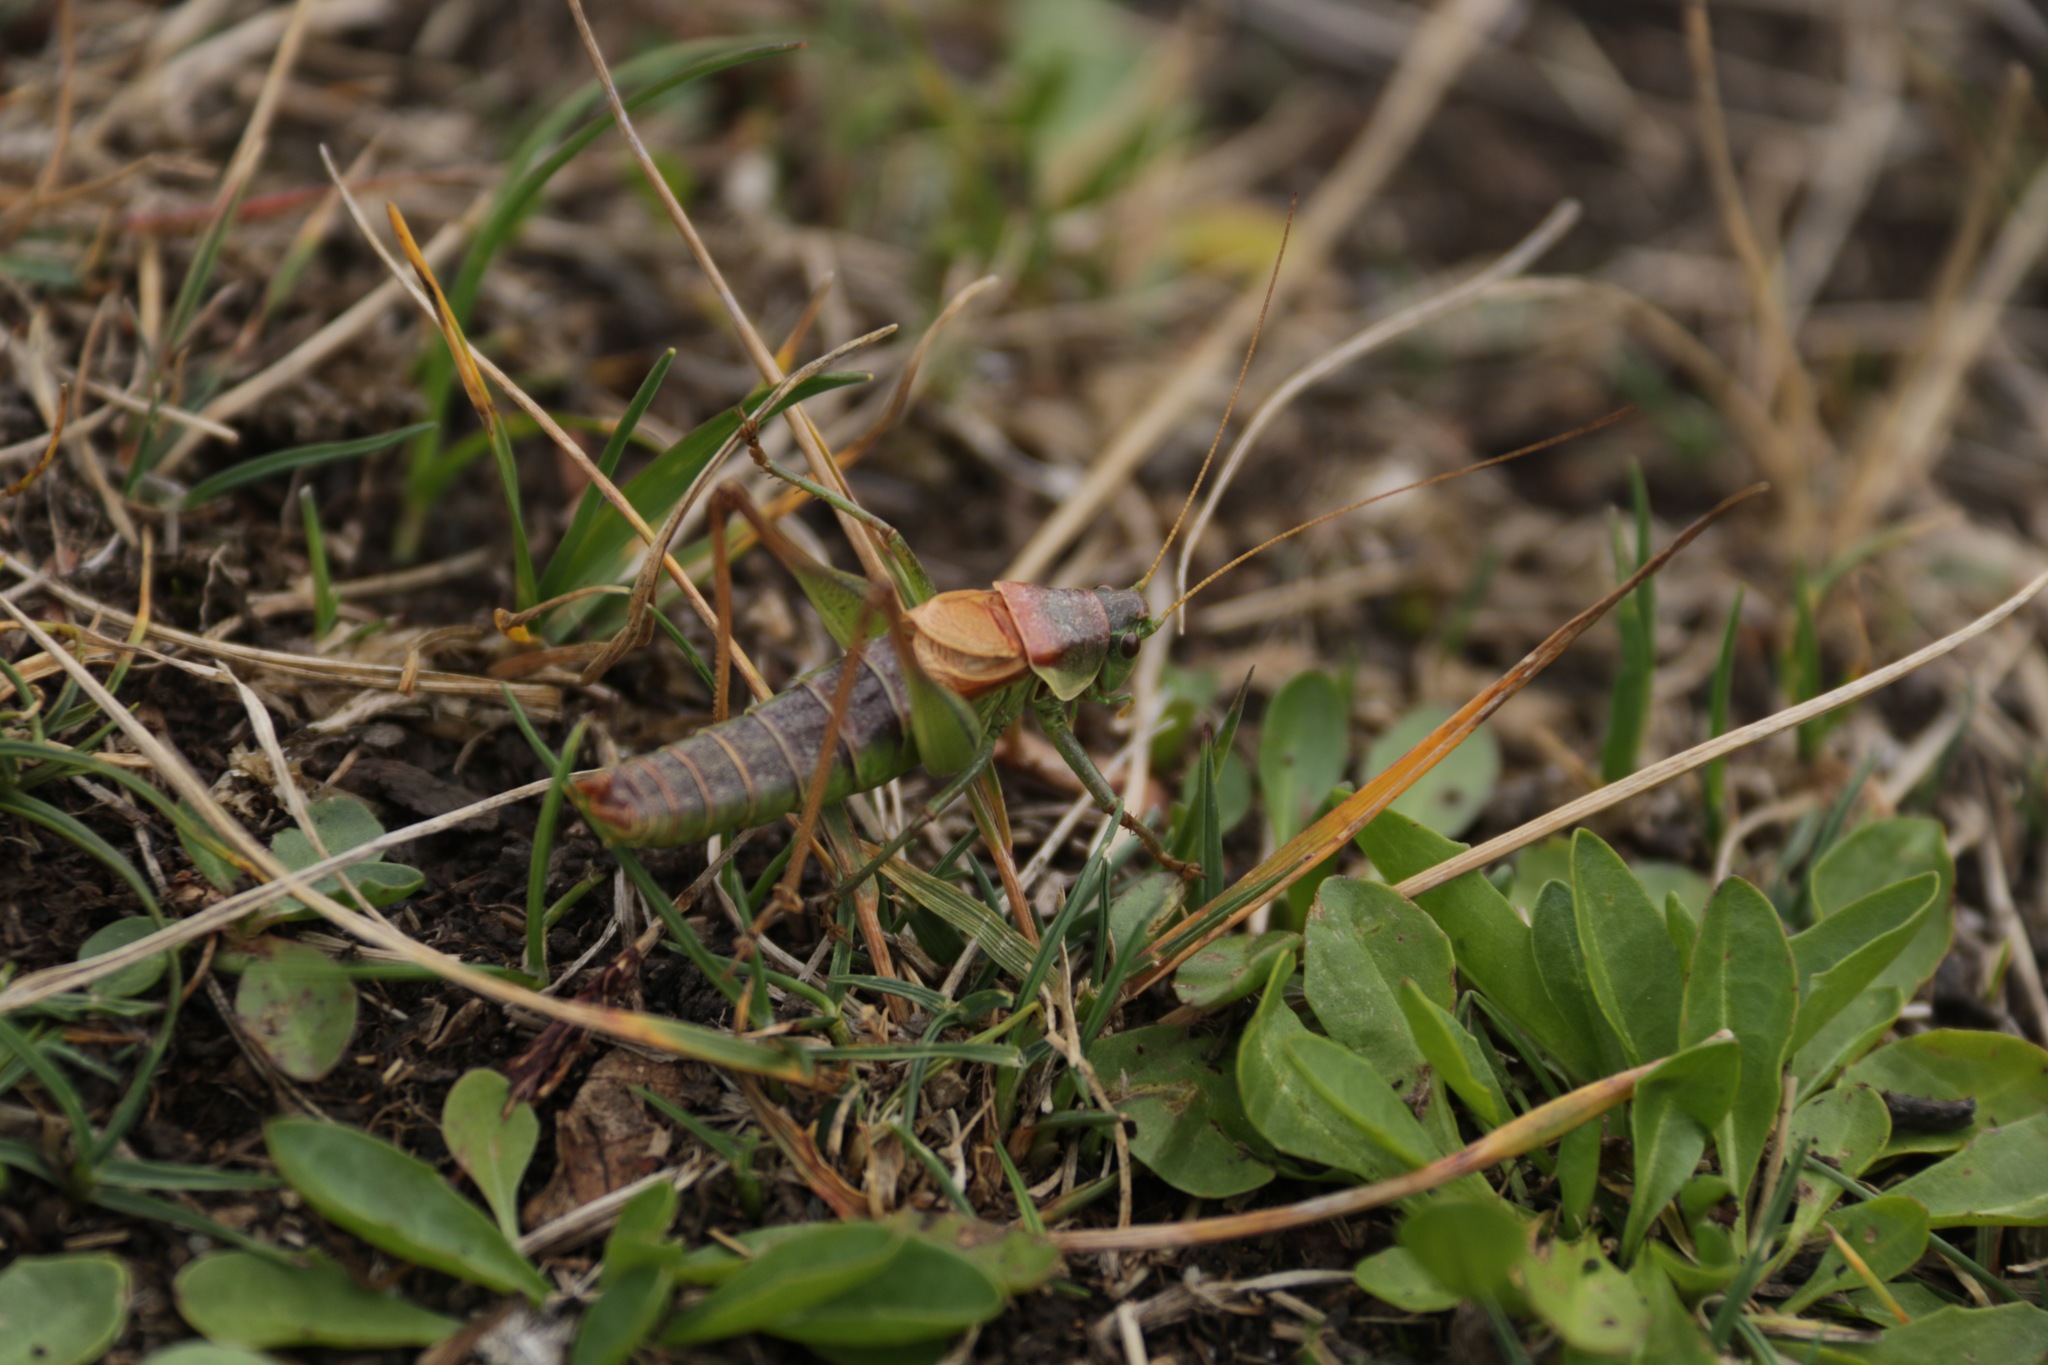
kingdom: Animalia
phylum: Arthropoda
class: Insecta
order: Orthoptera
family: Tettigoniidae
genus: Psorodonotus
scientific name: Psorodonotus fieberi
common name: Fieber's walking bush-cricket
